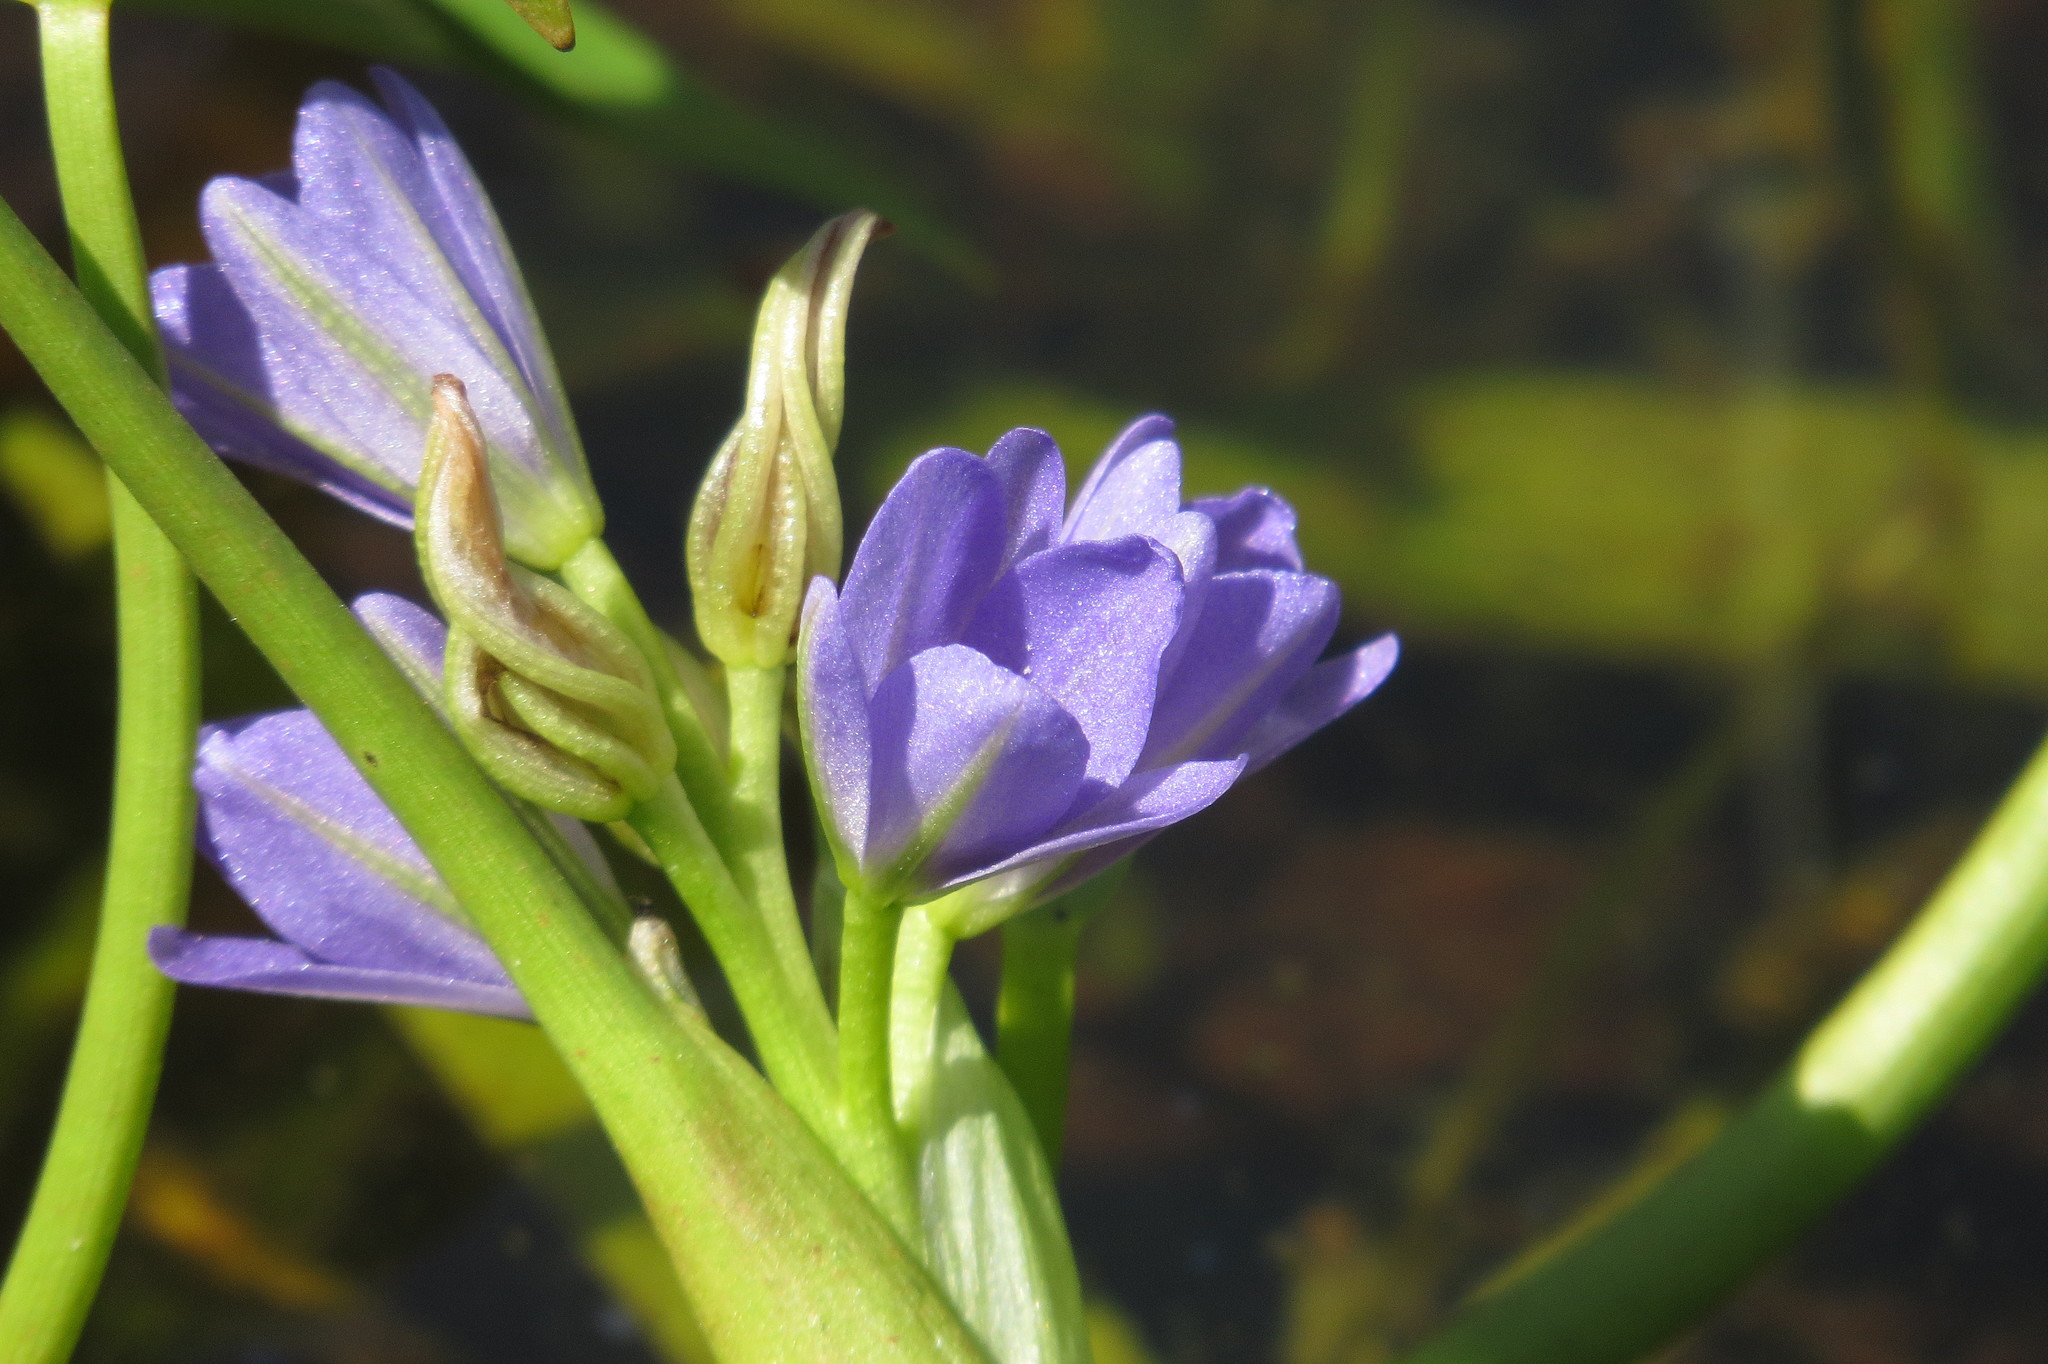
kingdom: Plantae
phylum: Tracheophyta
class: Liliopsida
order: Commelinales
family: Pontederiaceae
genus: Pontederia
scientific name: Pontederia vaginalis
